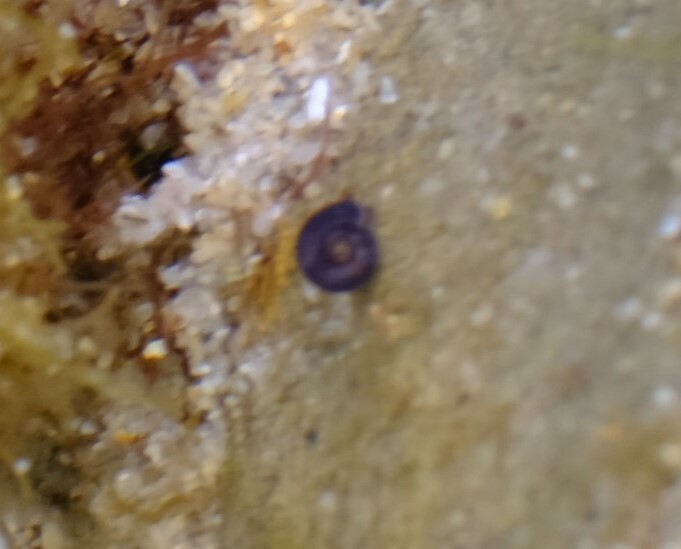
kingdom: Animalia
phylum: Mollusca
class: Gastropoda
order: Trochida
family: Trochidae
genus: Minopa
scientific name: Minopa
